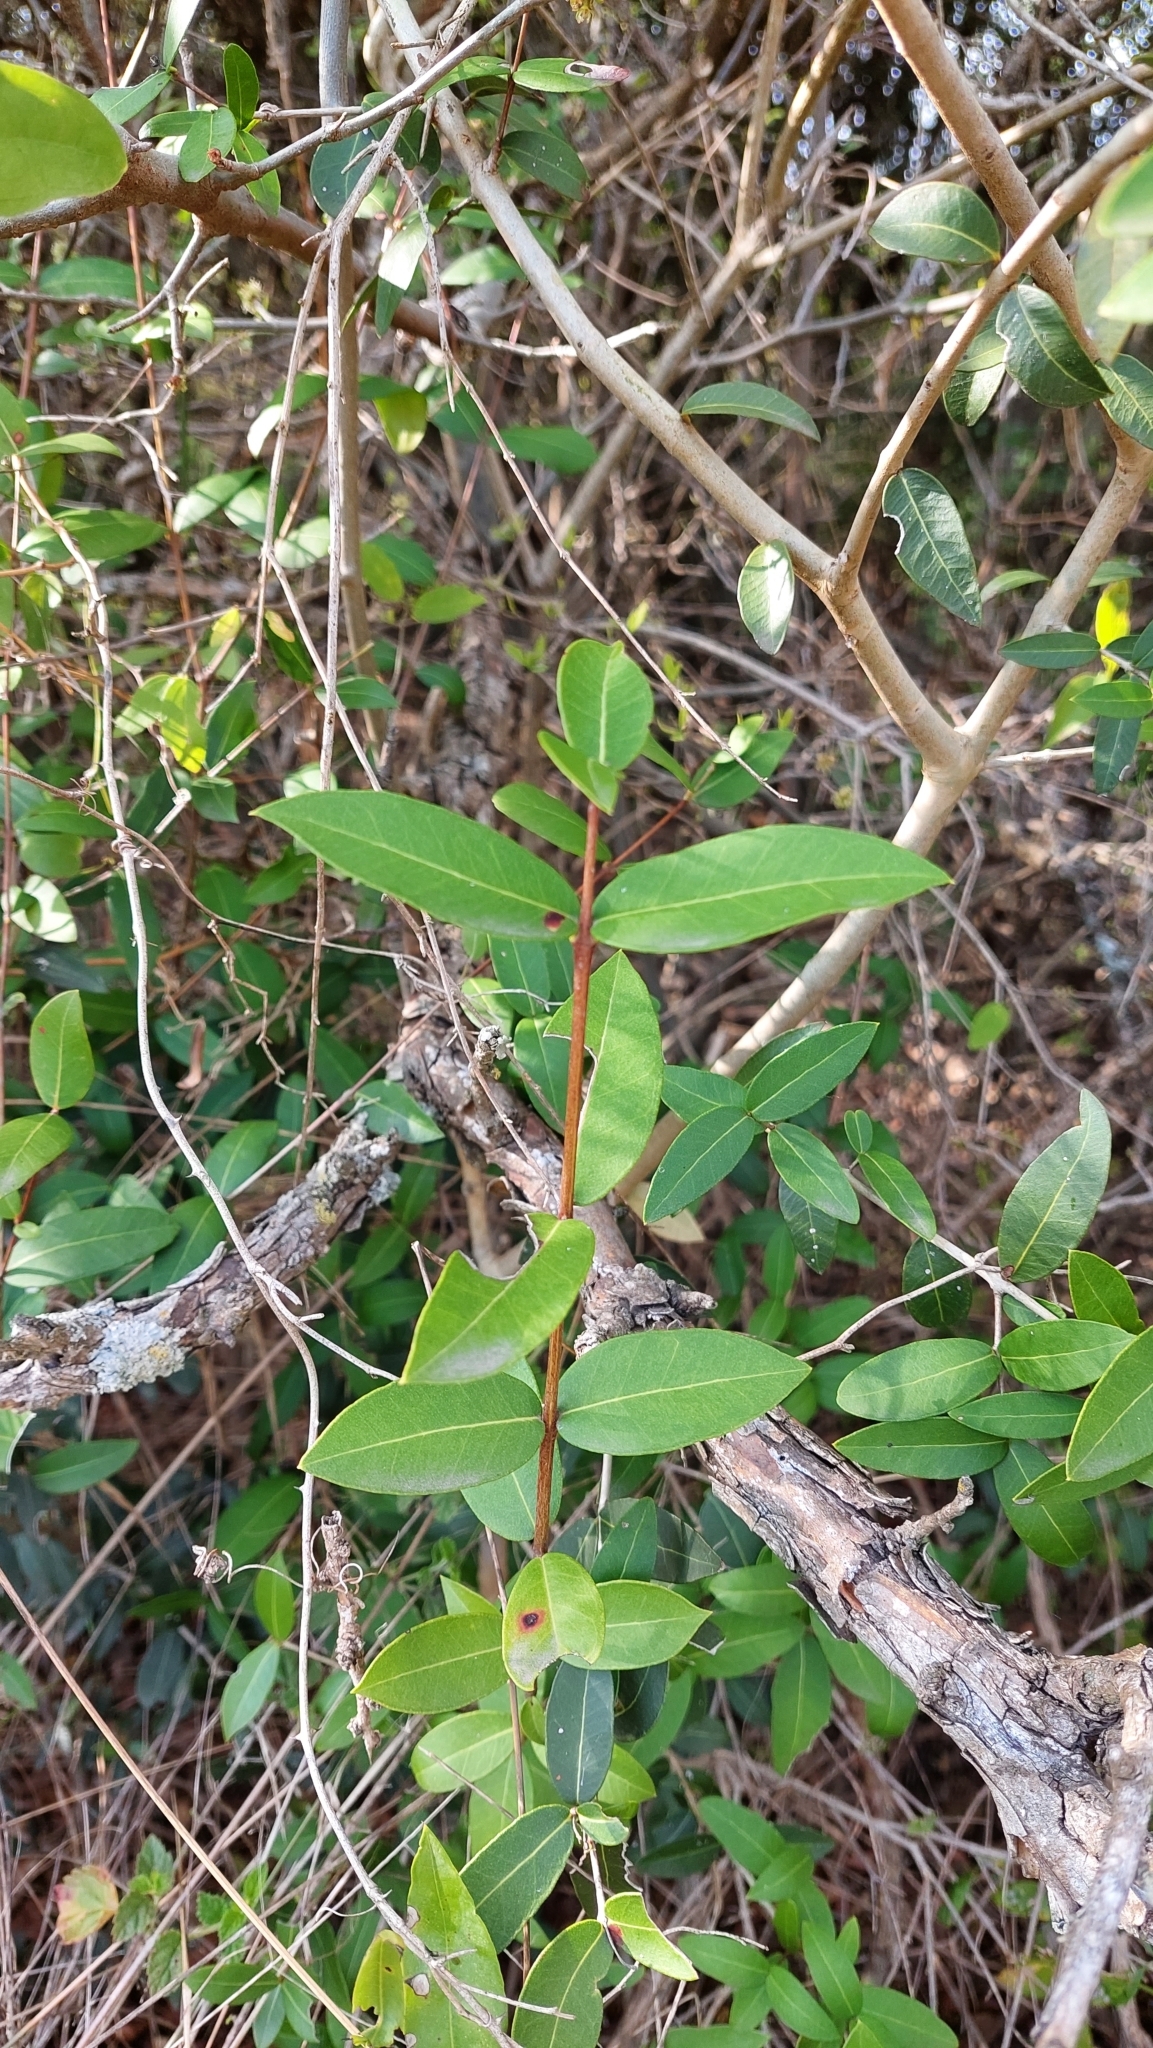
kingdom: Plantae
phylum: Tracheophyta
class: Magnoliopsida
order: Myrtales
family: Myrtaceae
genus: Myrcianthes
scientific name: Myrcianthes cisplatensis
